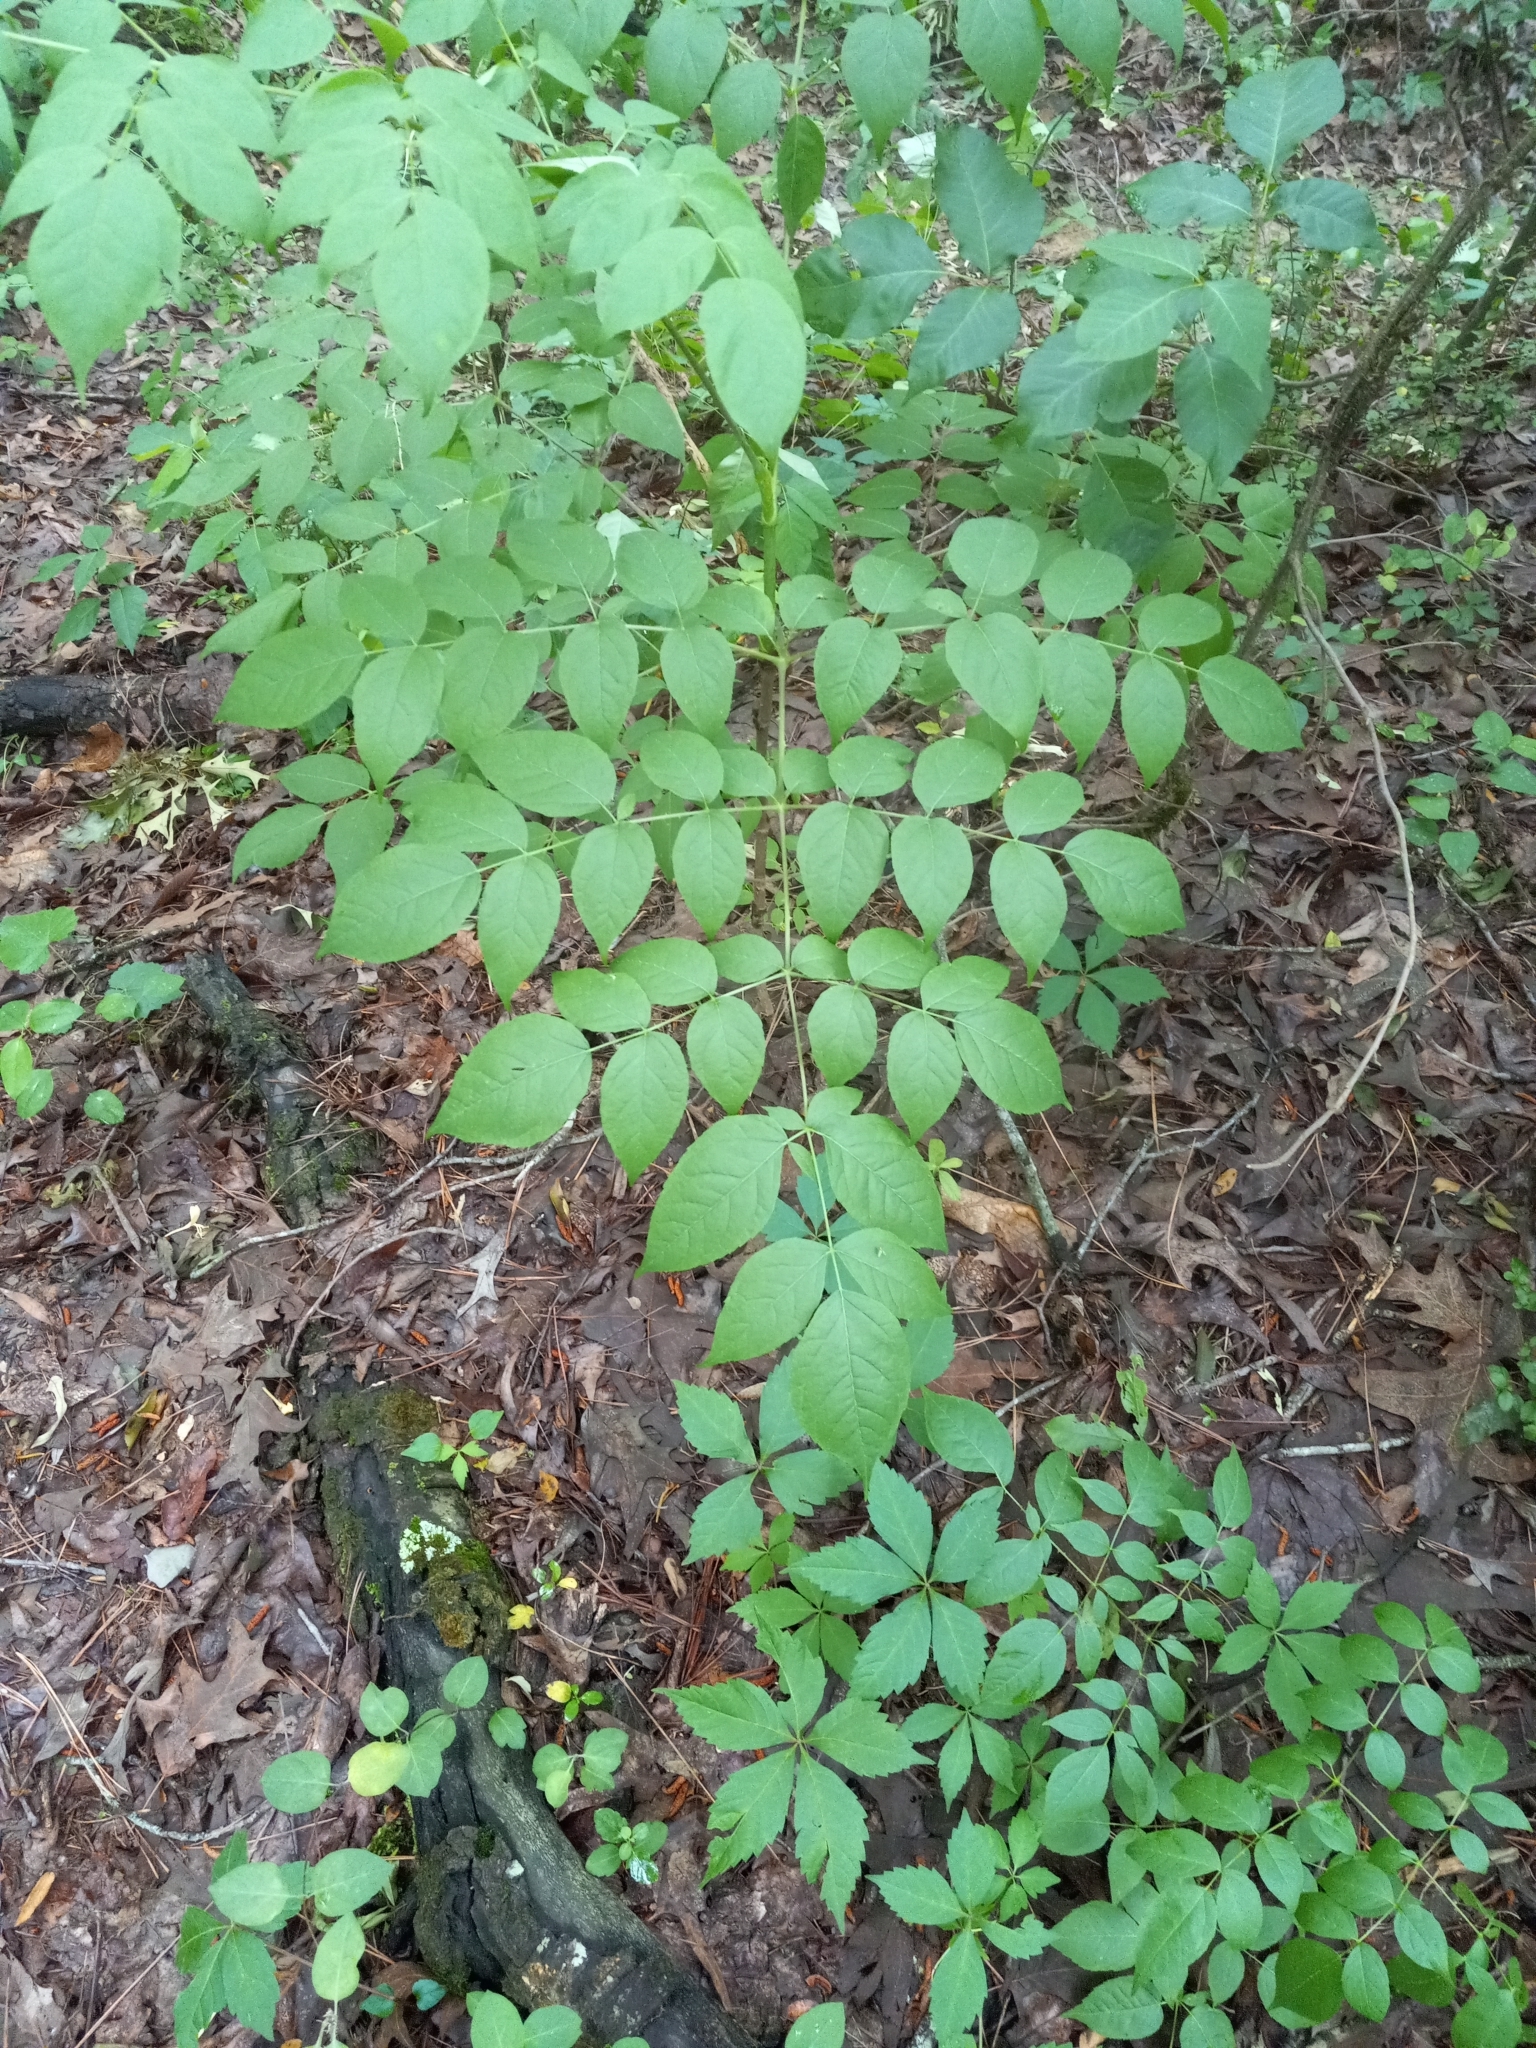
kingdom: Plantae
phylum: Tracheophyta
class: Magnoliopsida
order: Apiales
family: Araliaceae
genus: Aralia
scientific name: Aralia spinosa
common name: Hercules'-club
